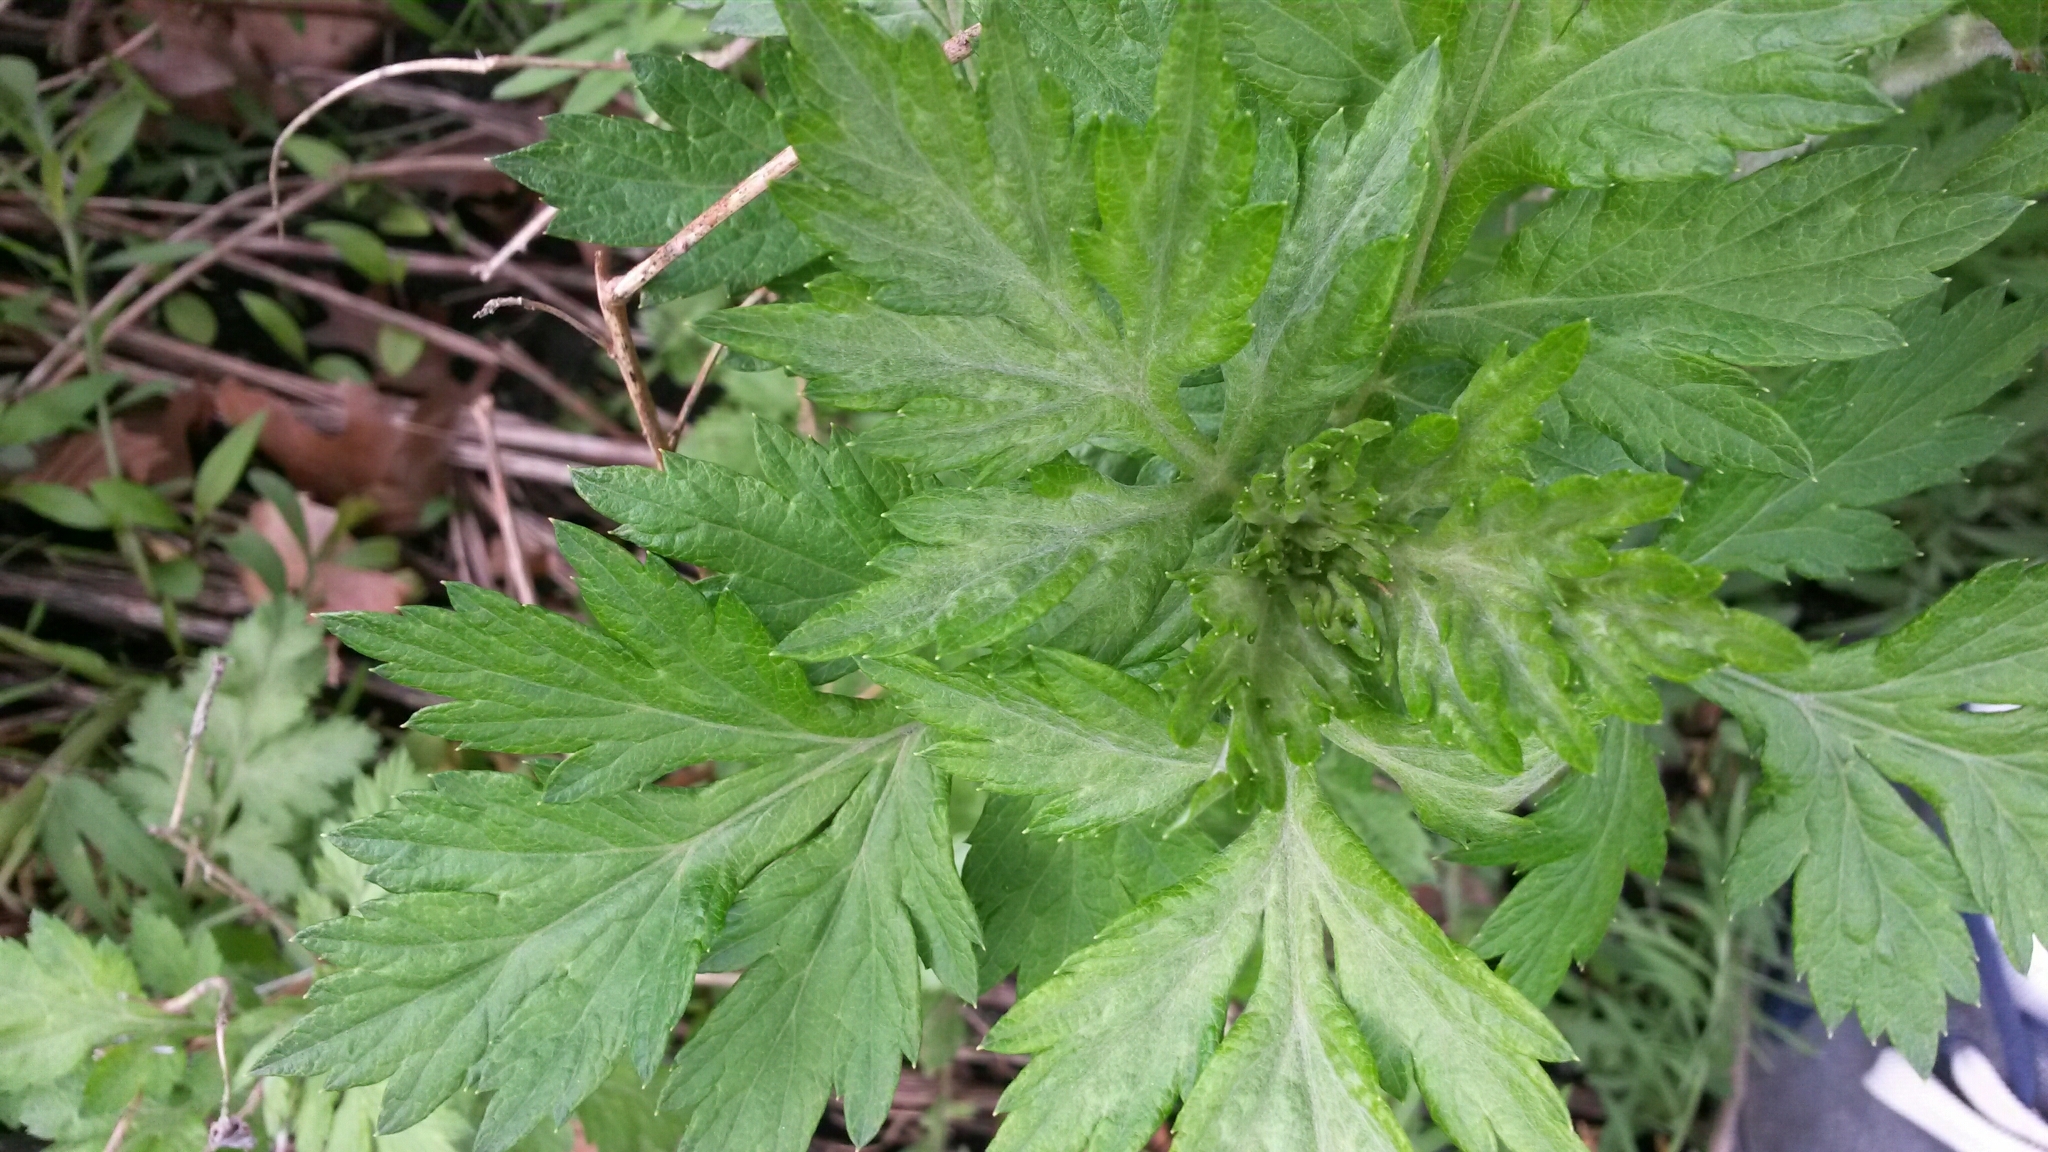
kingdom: Plantae
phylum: Tracheophyta
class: Magnoliopsida
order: Asterales
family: Asteraceae
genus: Artemisia
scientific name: Artemisia vulgaris
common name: Mugwort
